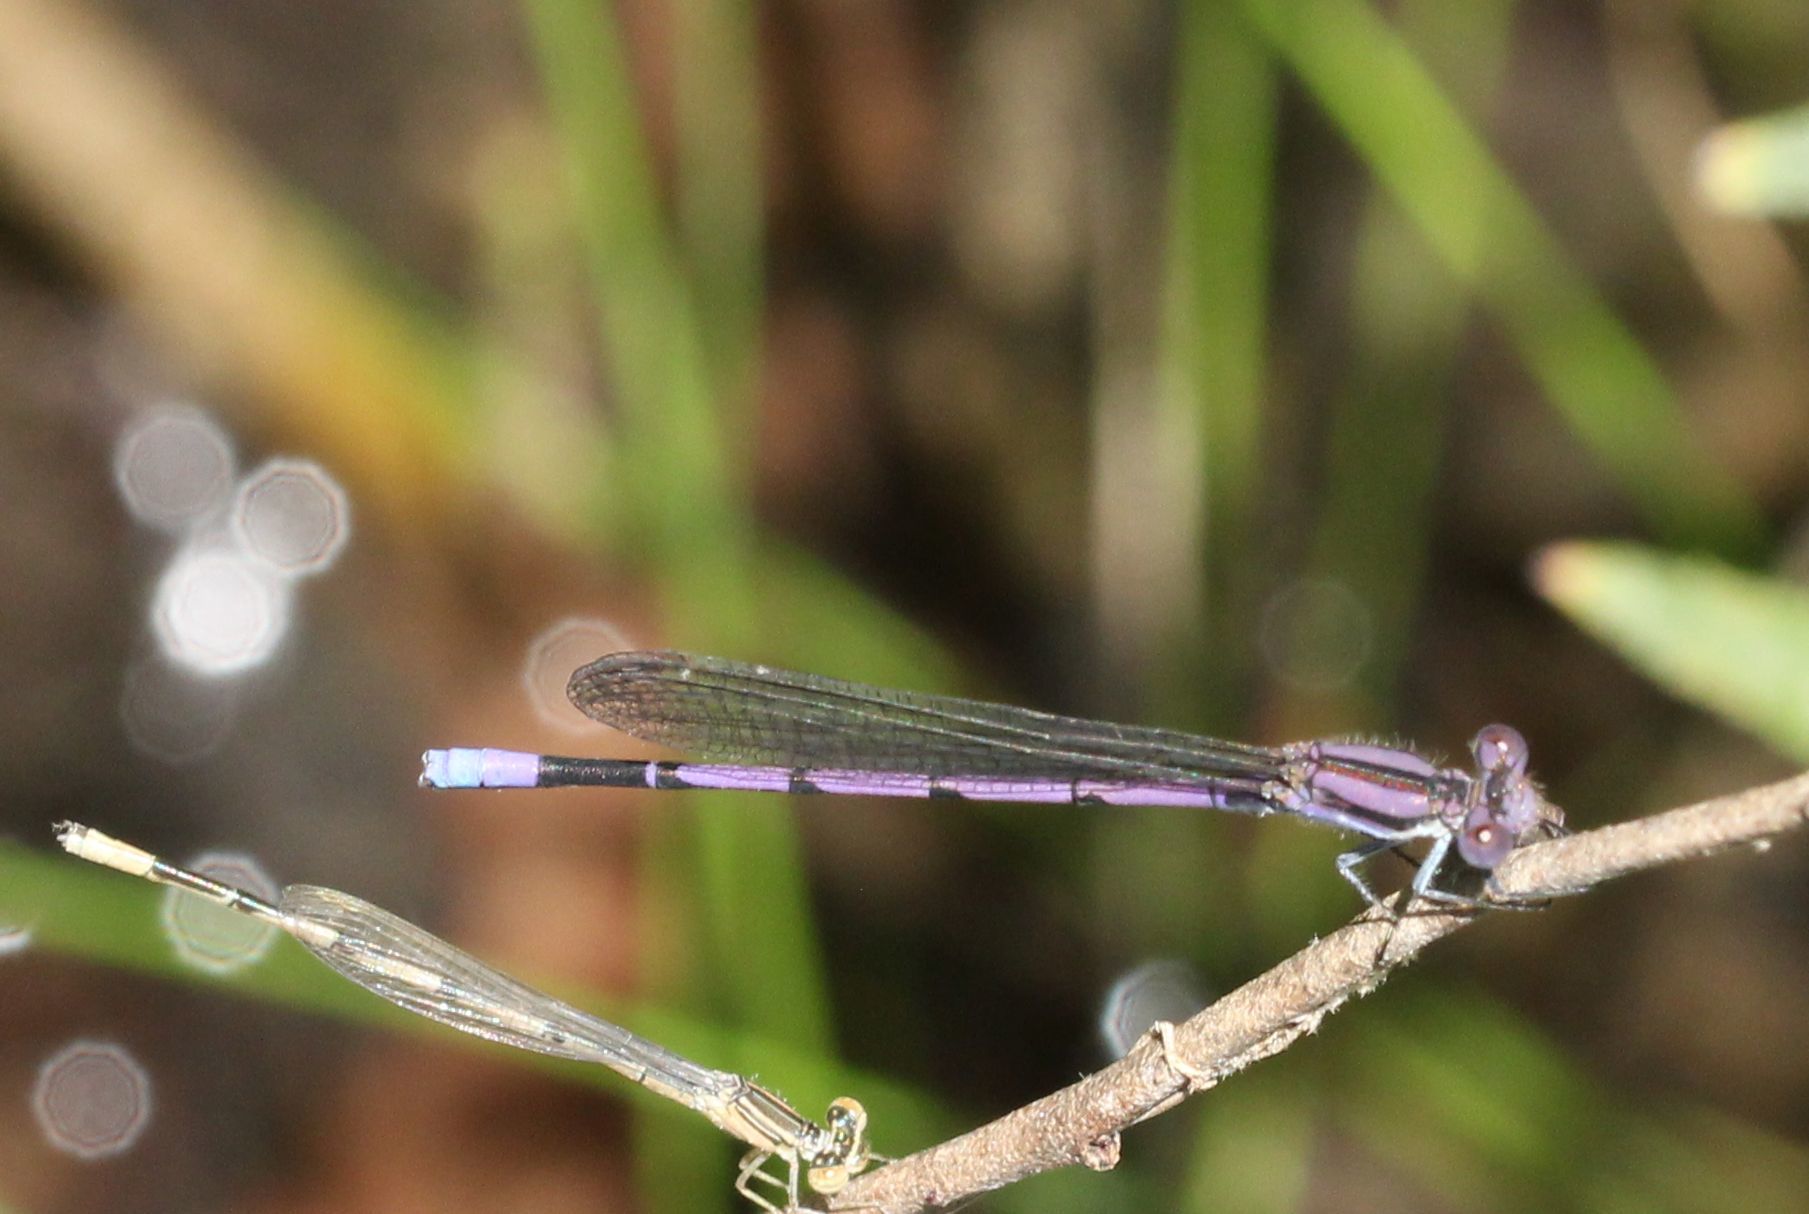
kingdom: Animalia
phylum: Arthropoda
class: Insecta
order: Odonata
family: Coenagrionidae
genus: Argia
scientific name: Argia fumipennis
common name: Variable dancer
